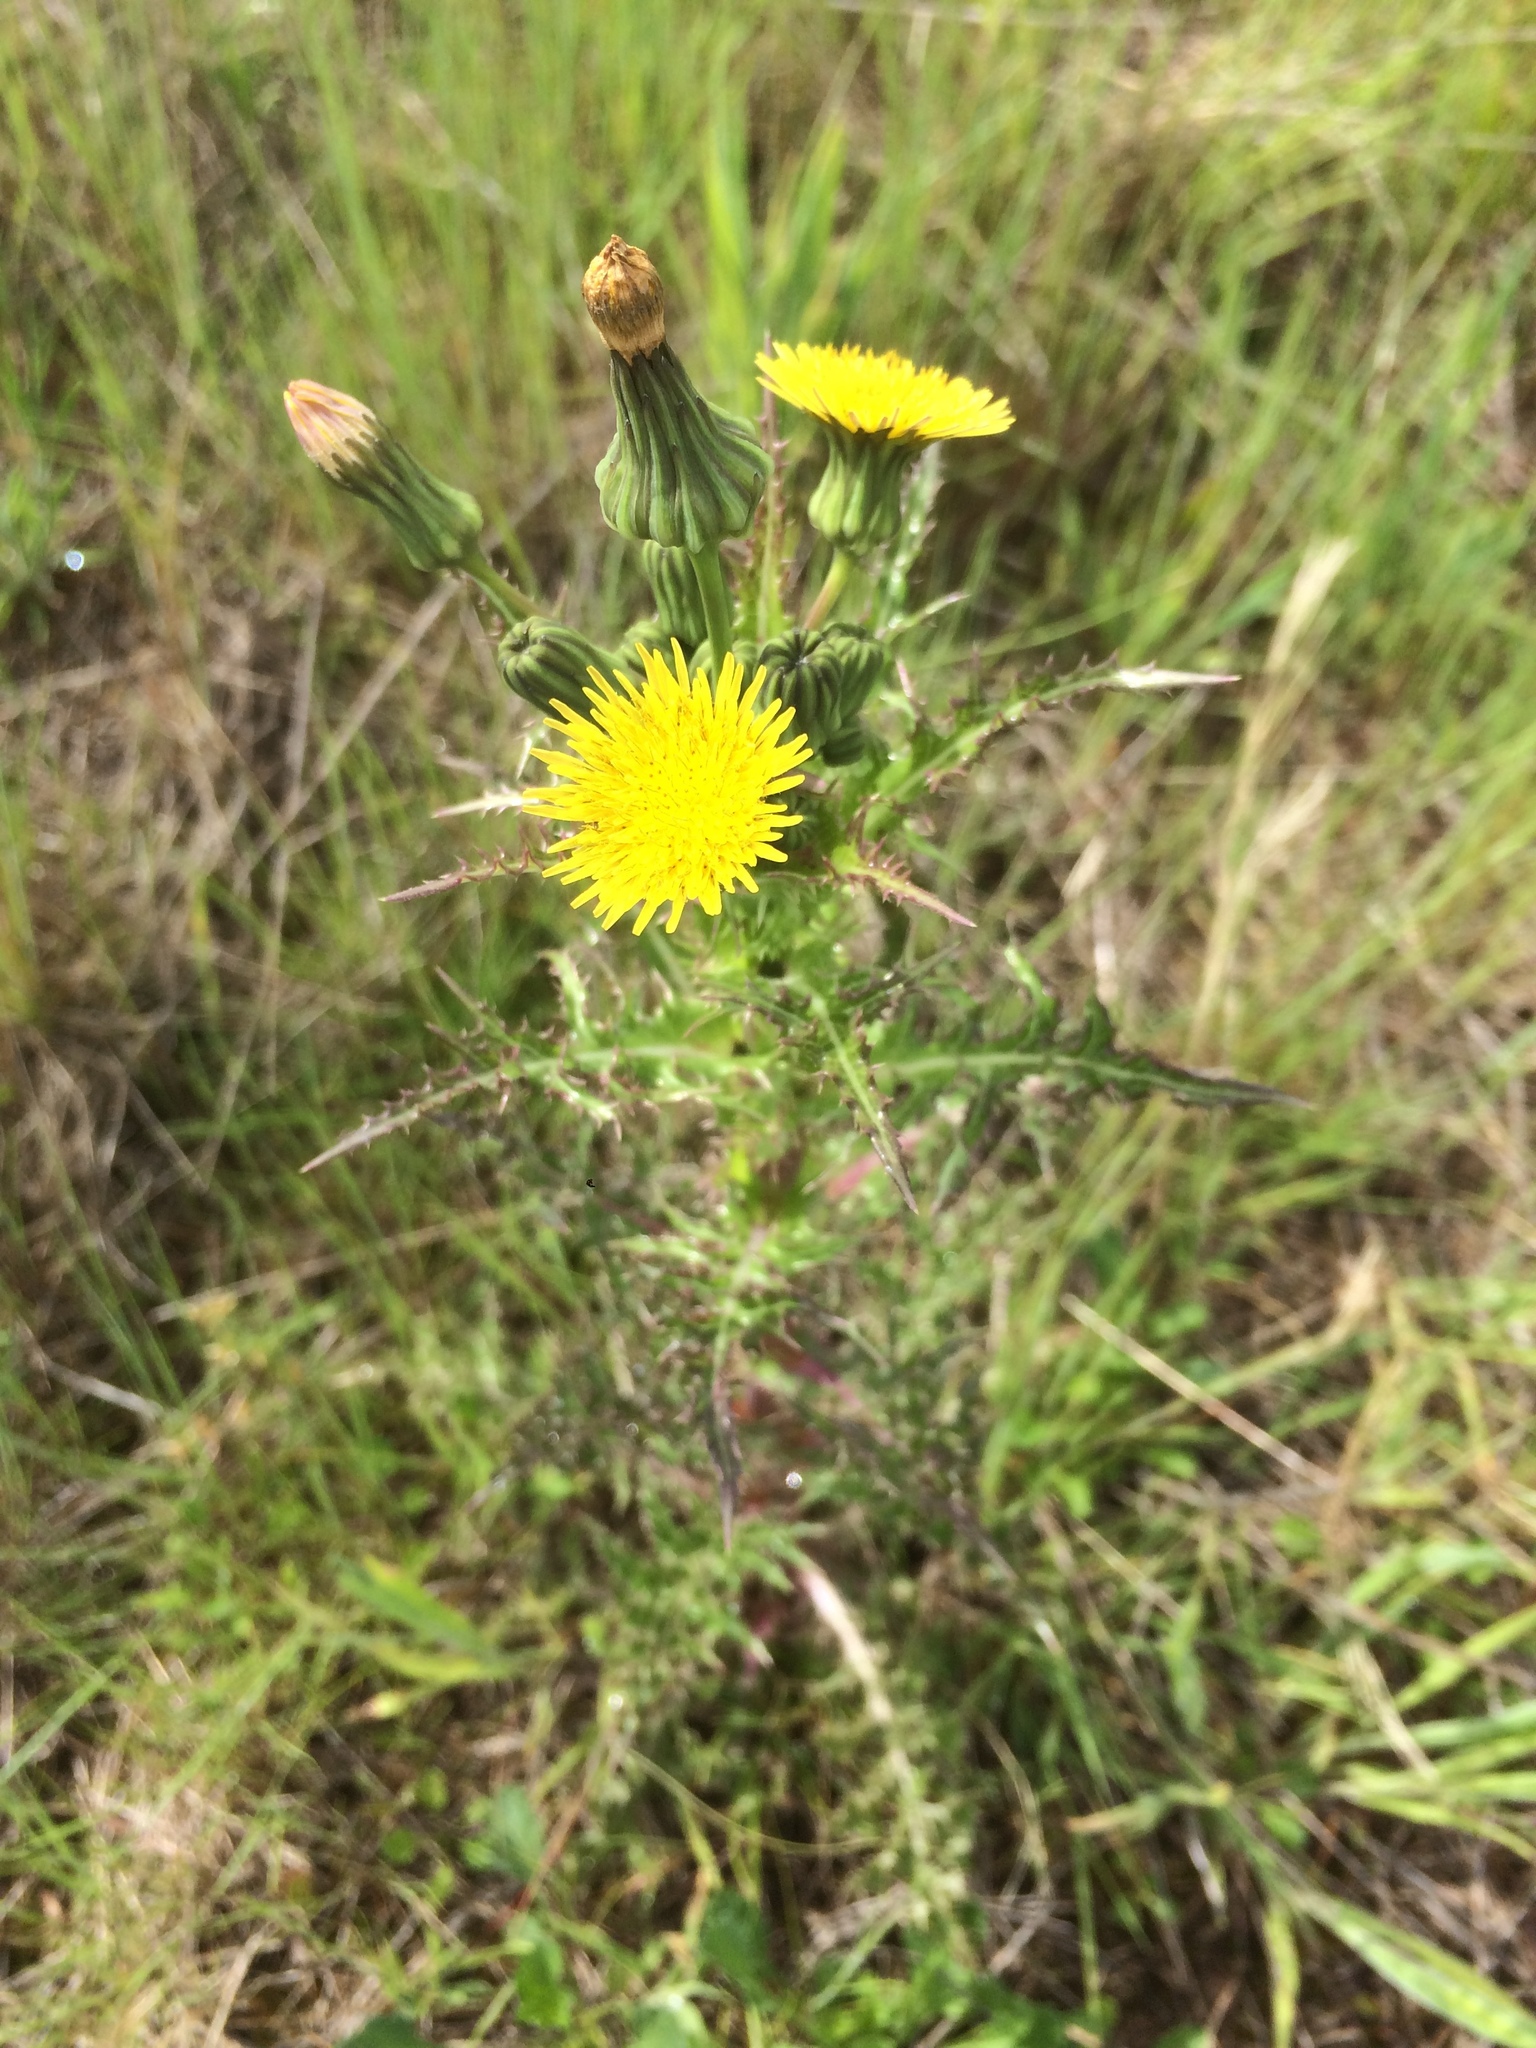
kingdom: Plantae
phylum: Tracheophyta
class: Magnoliopsida
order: Asterales
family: Asteraceae
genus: Sonchus
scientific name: Sonchus asper
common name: Prickly sow-thistle
